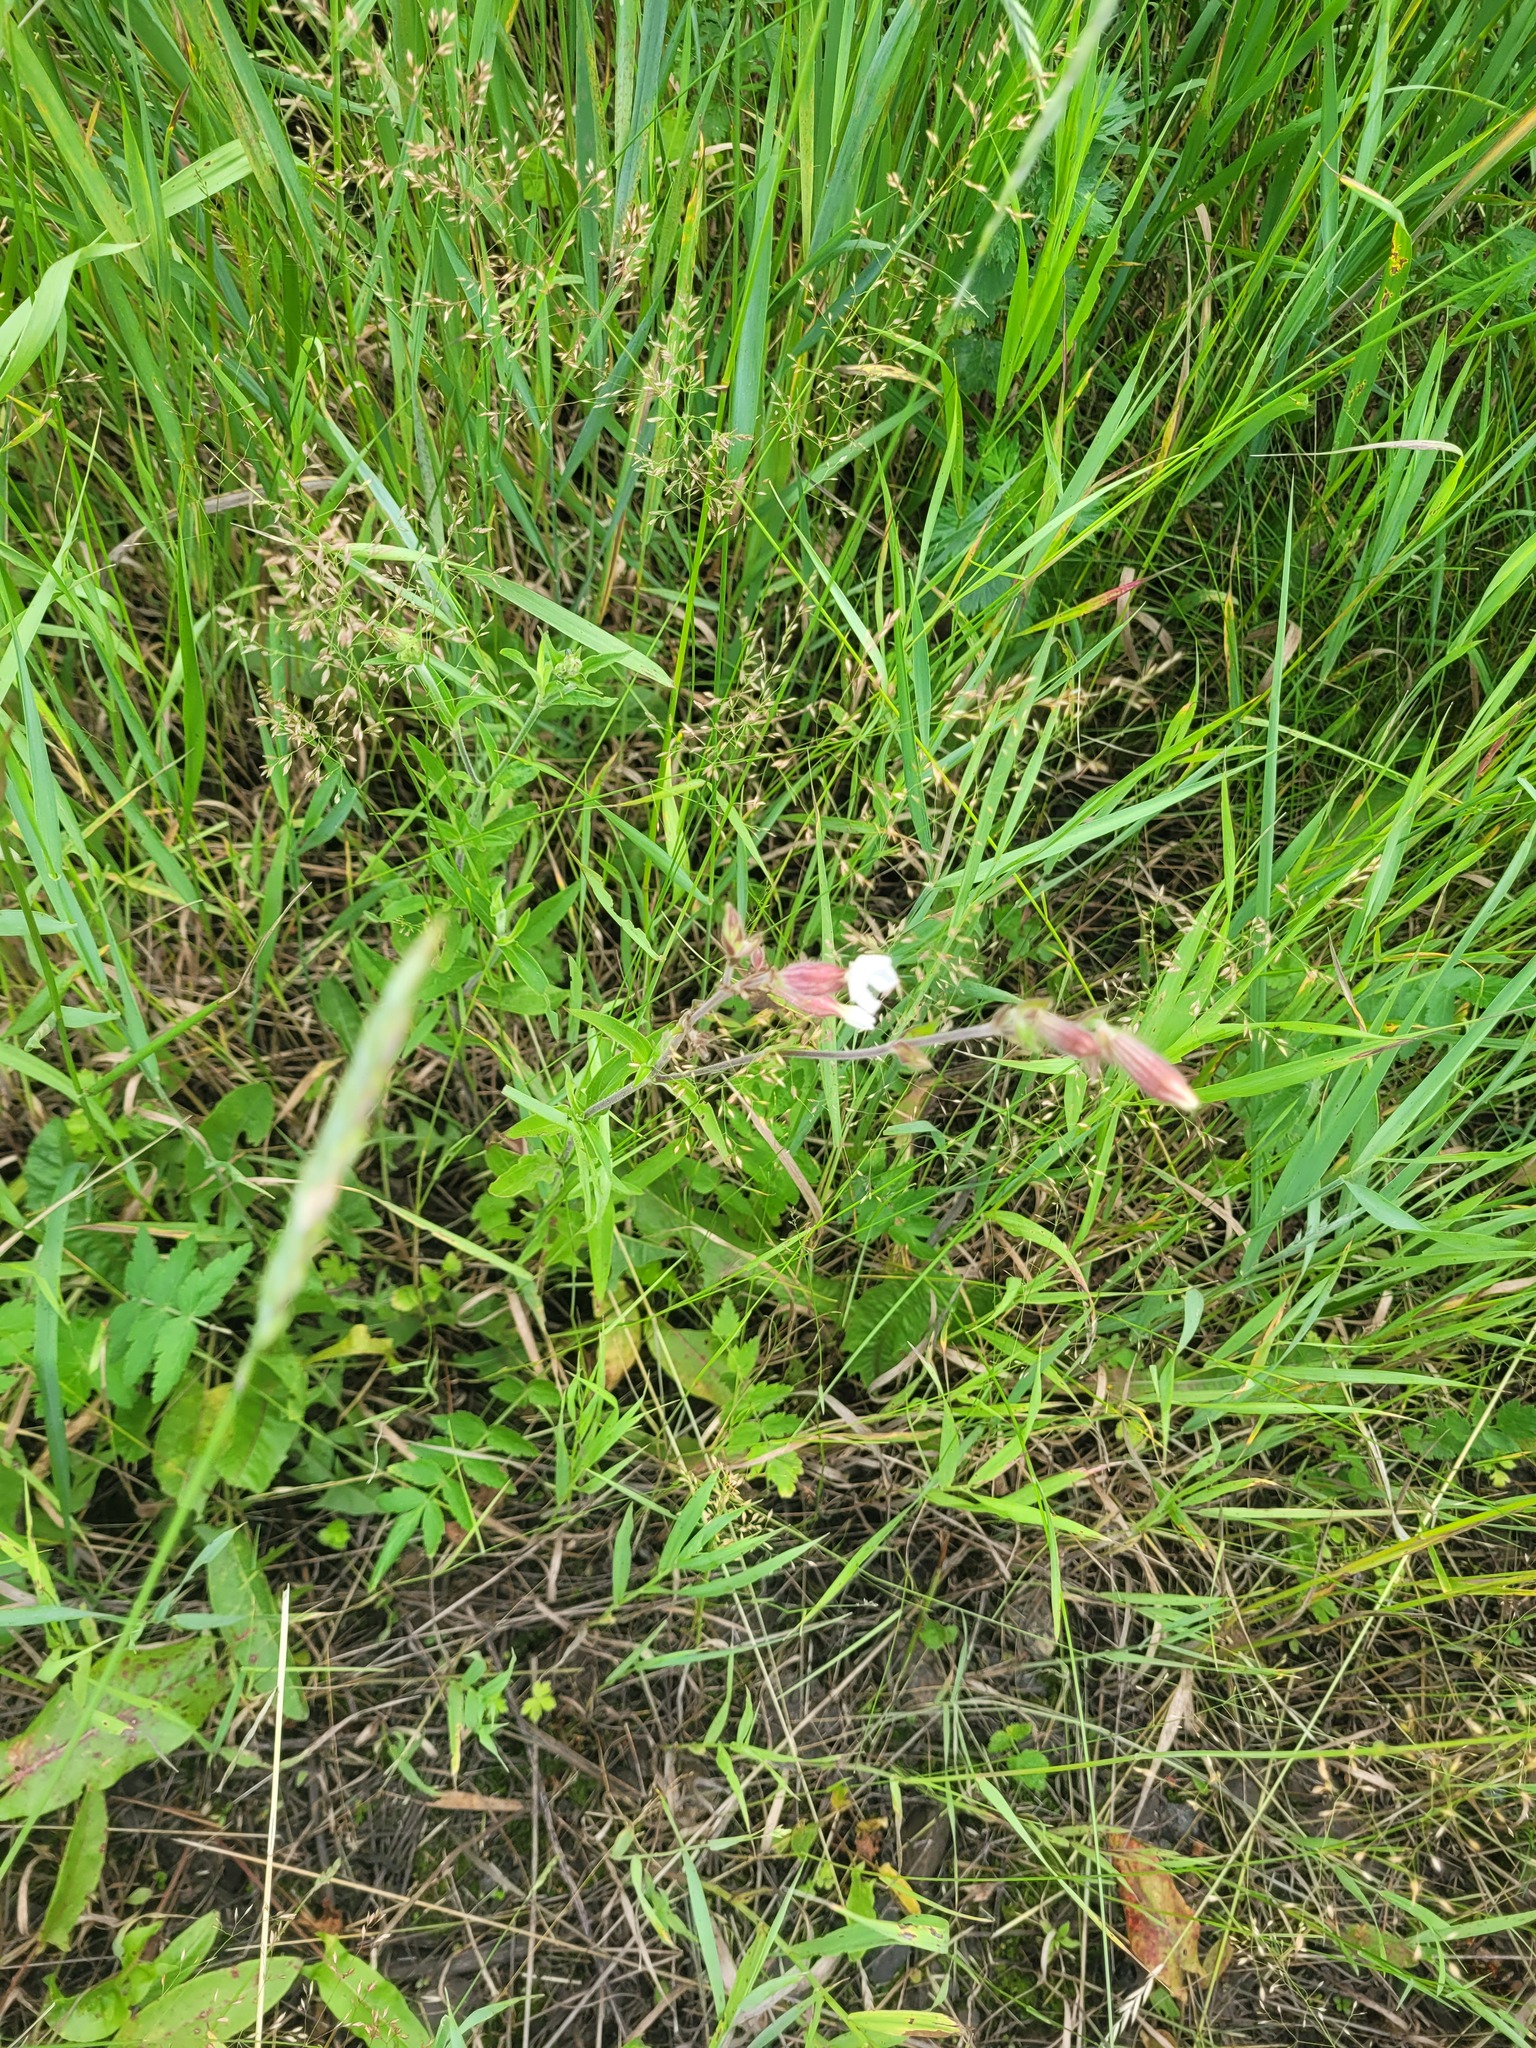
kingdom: Plantae
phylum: Tracheophyta
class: Magnoliopsida
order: Caryophyllales
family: Caryophyllaceae
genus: Silene
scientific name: Silene latifolia
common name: White campion
